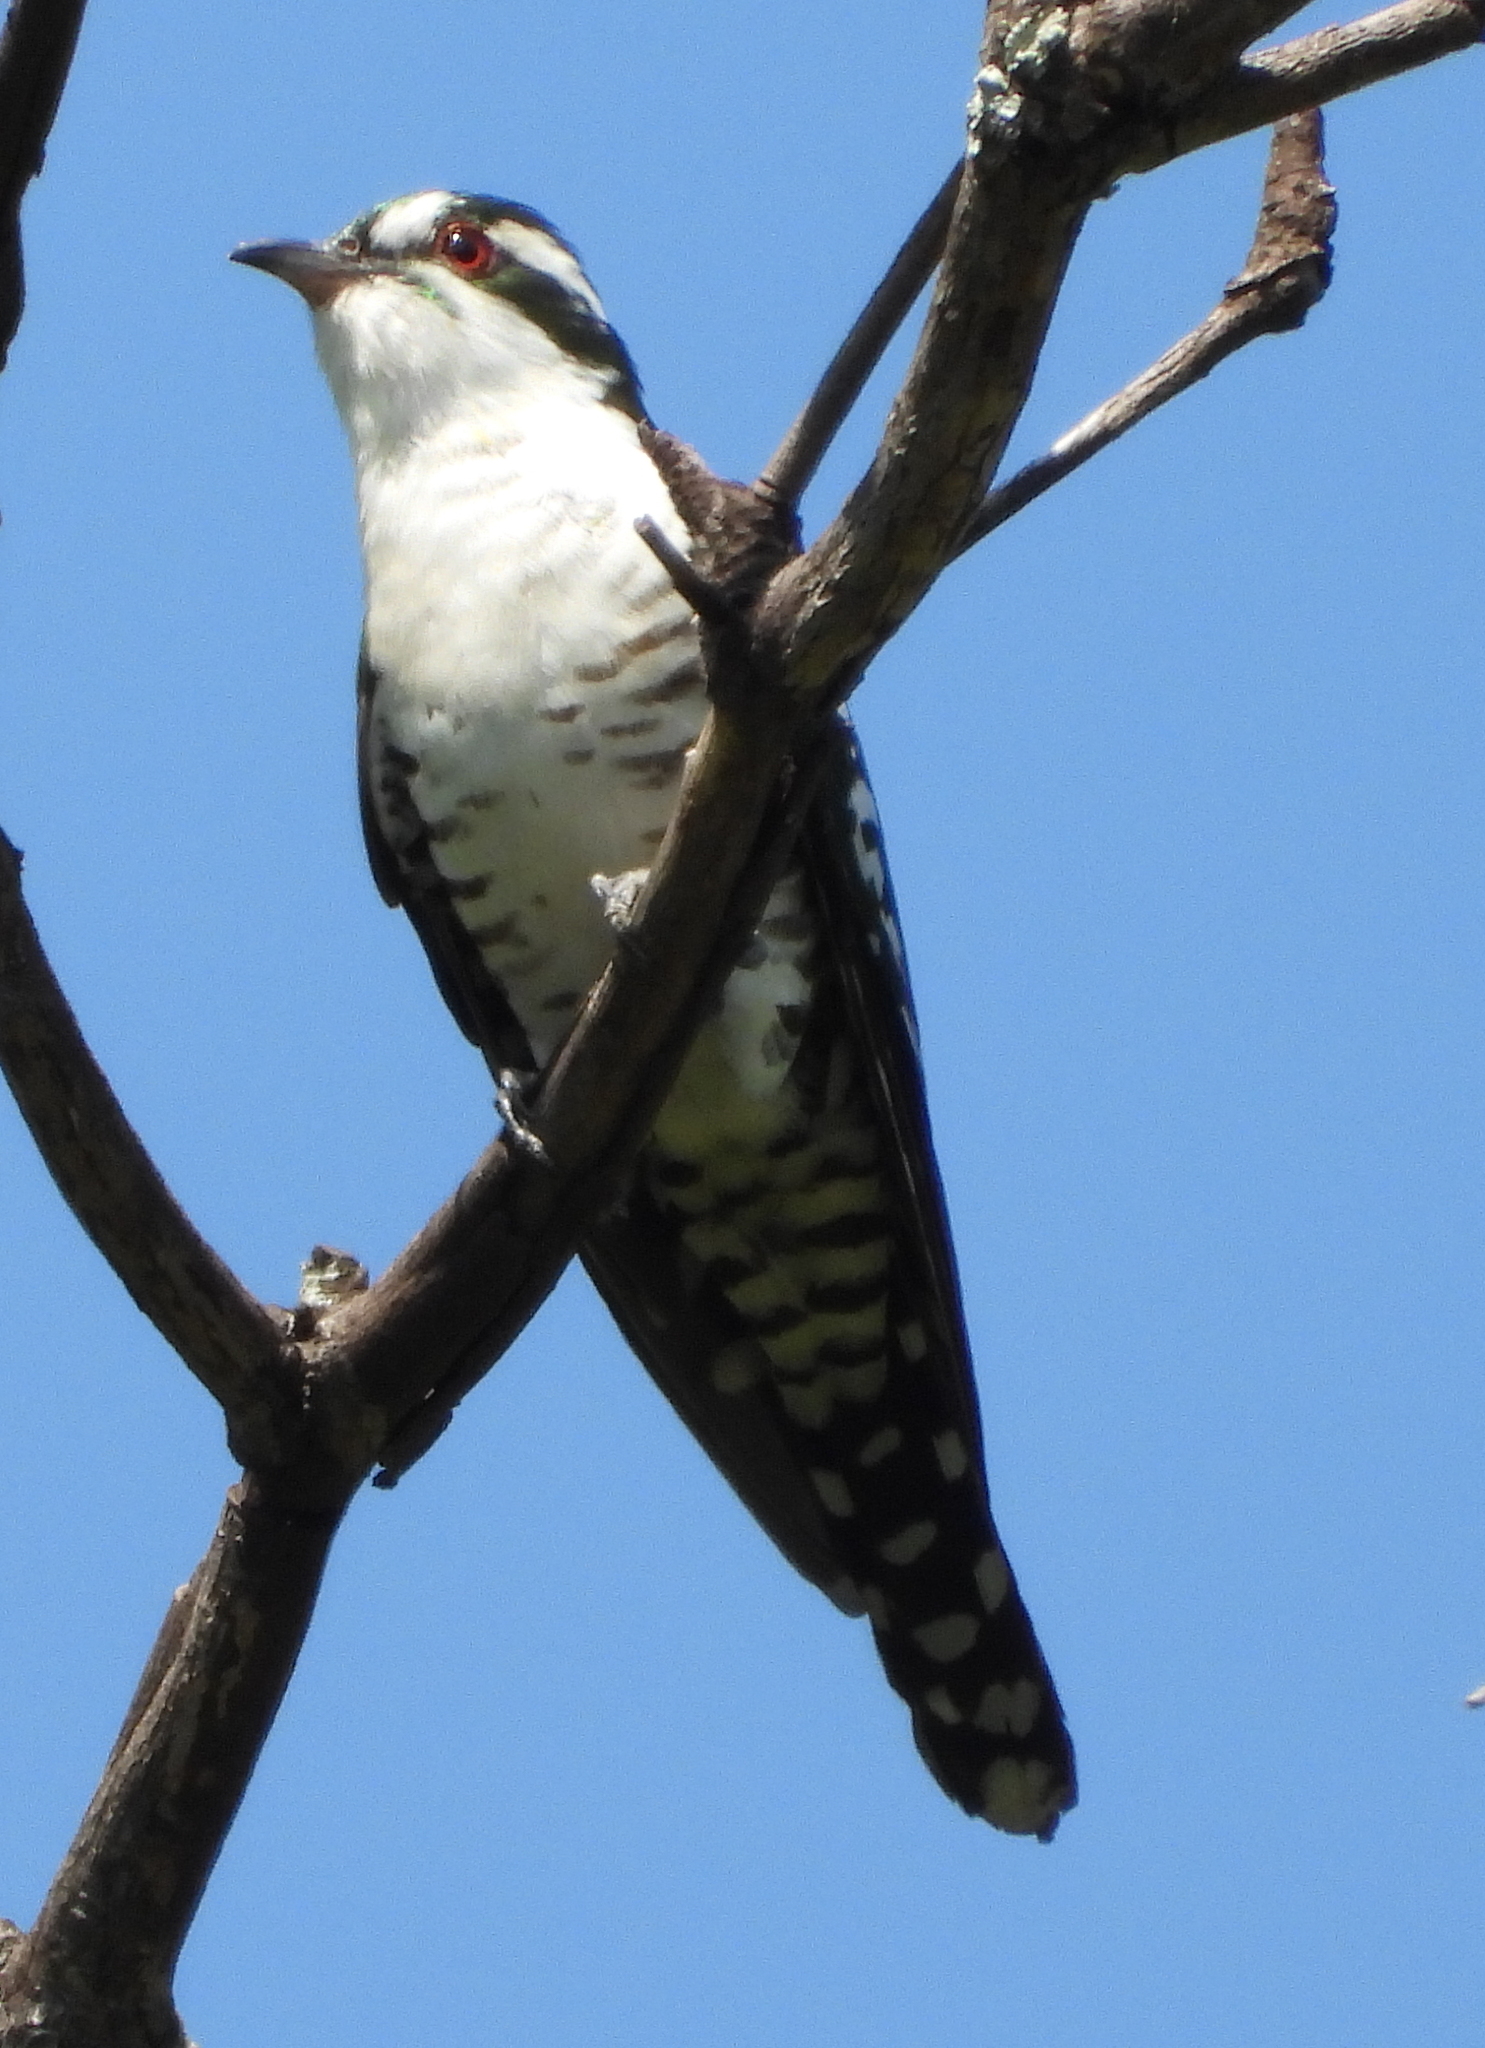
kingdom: Animalia
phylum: Chordata
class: Aves
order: Cuculiformes
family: Cuculidae
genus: Chrysococcyx
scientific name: Chrysococcyx caprius
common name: Diederik cuckoo
